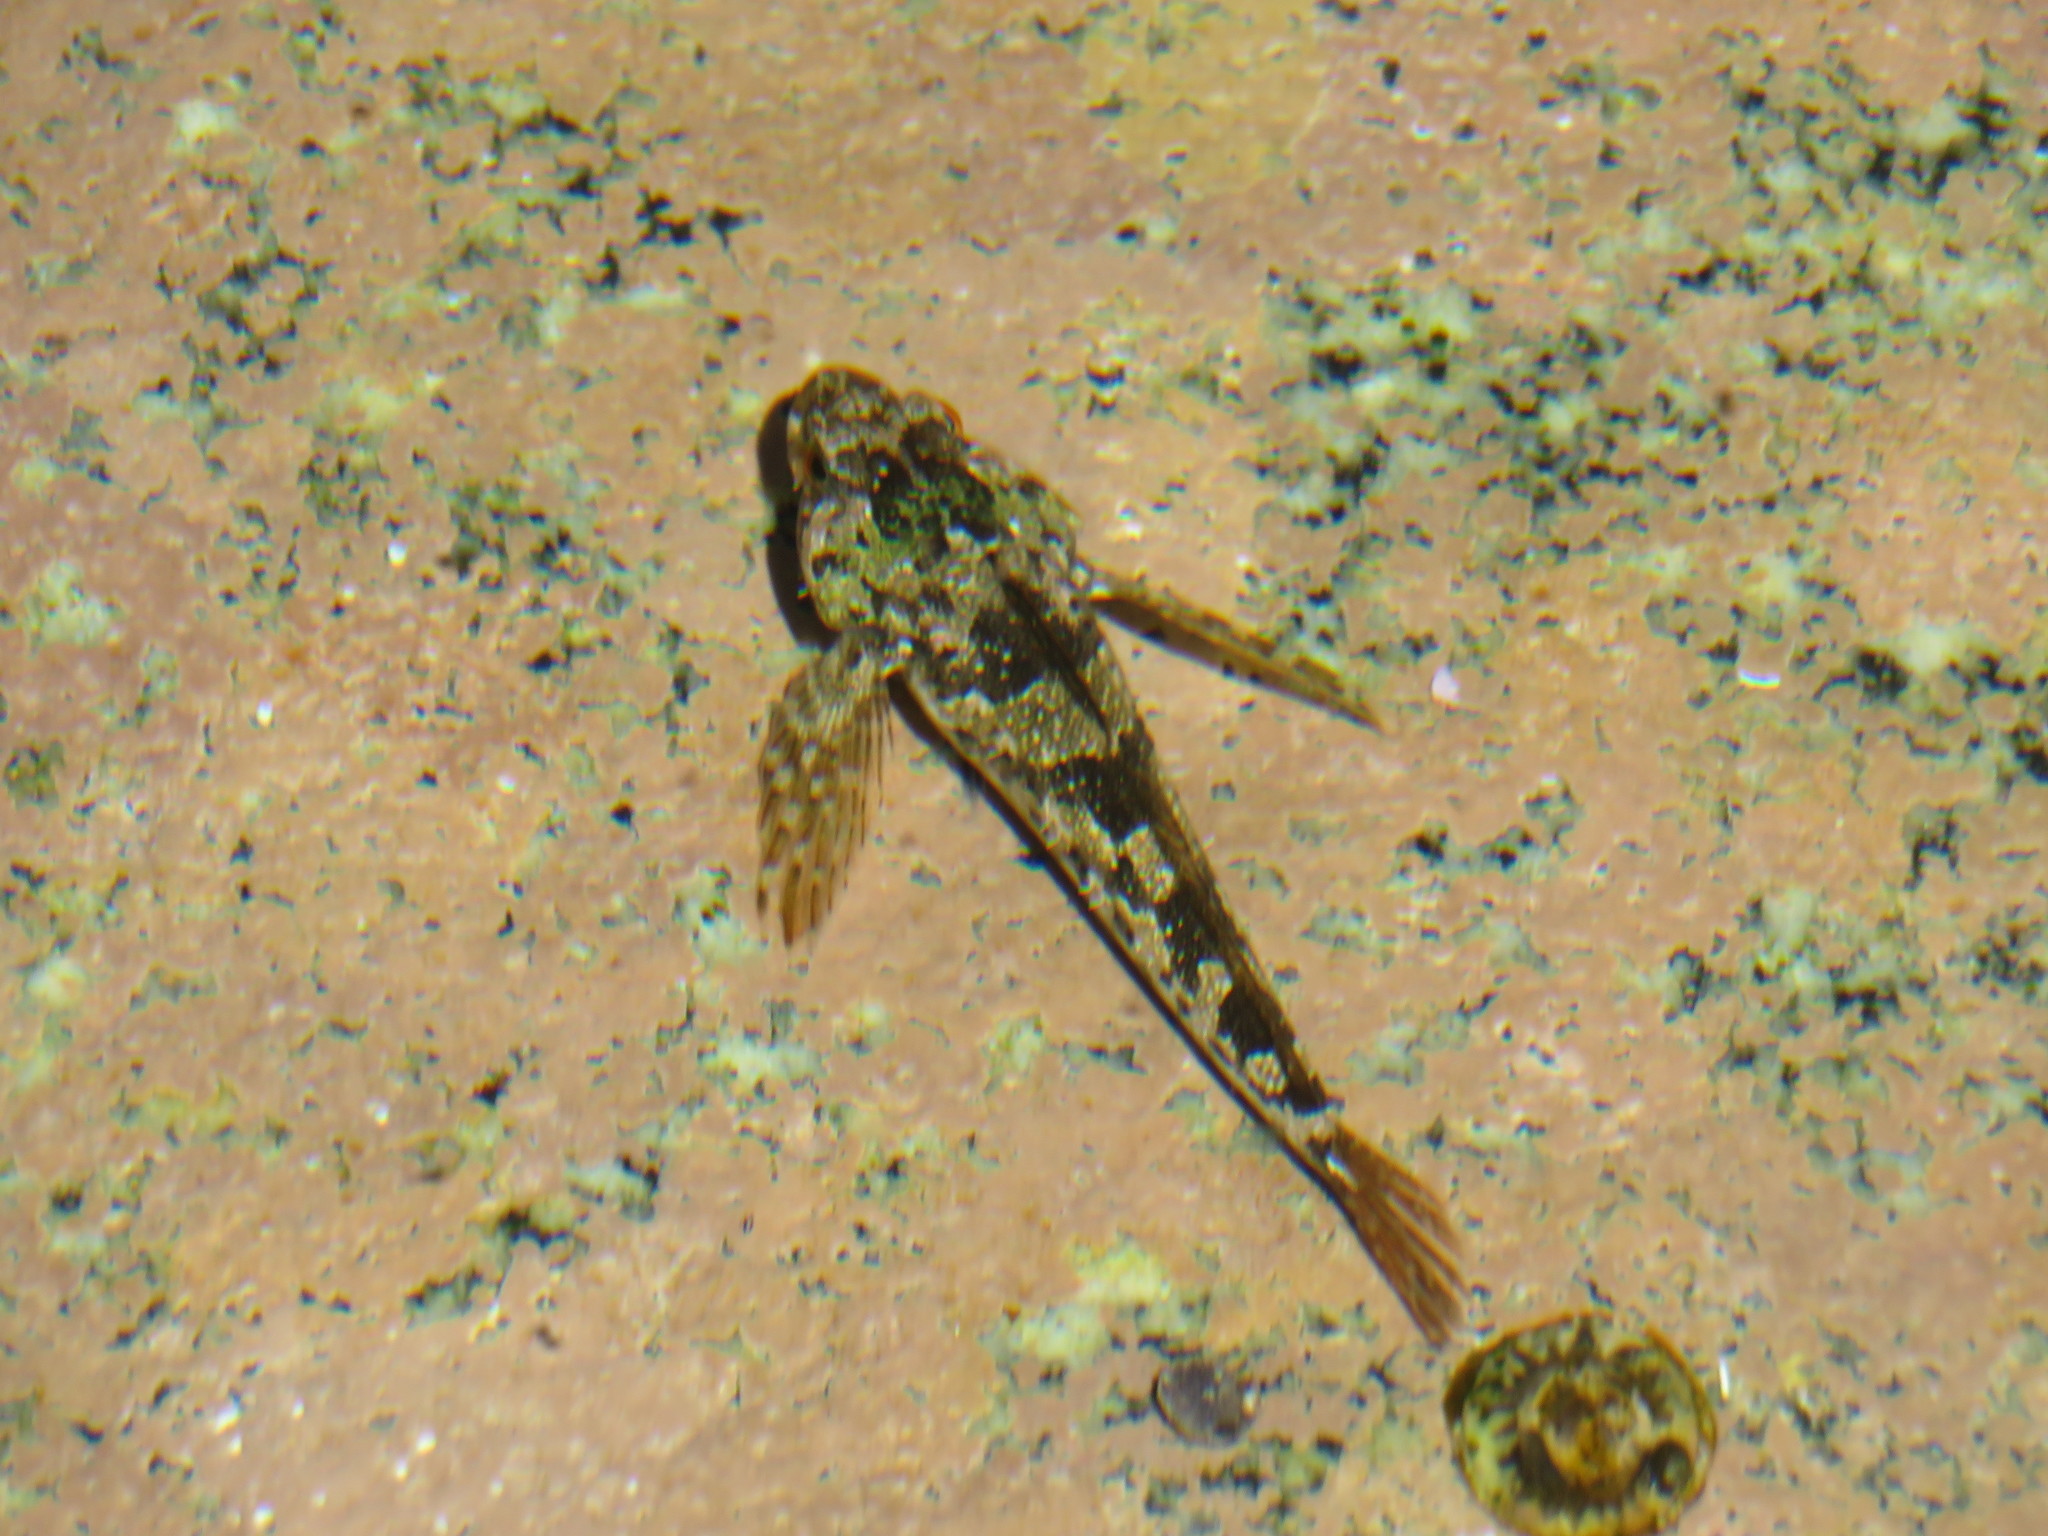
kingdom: Animalia
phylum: Chordata
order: Scorpaeniformes
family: Cottidae
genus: Oligocottus
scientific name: Oligocottus maculosus
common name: Tidepool sculpin
